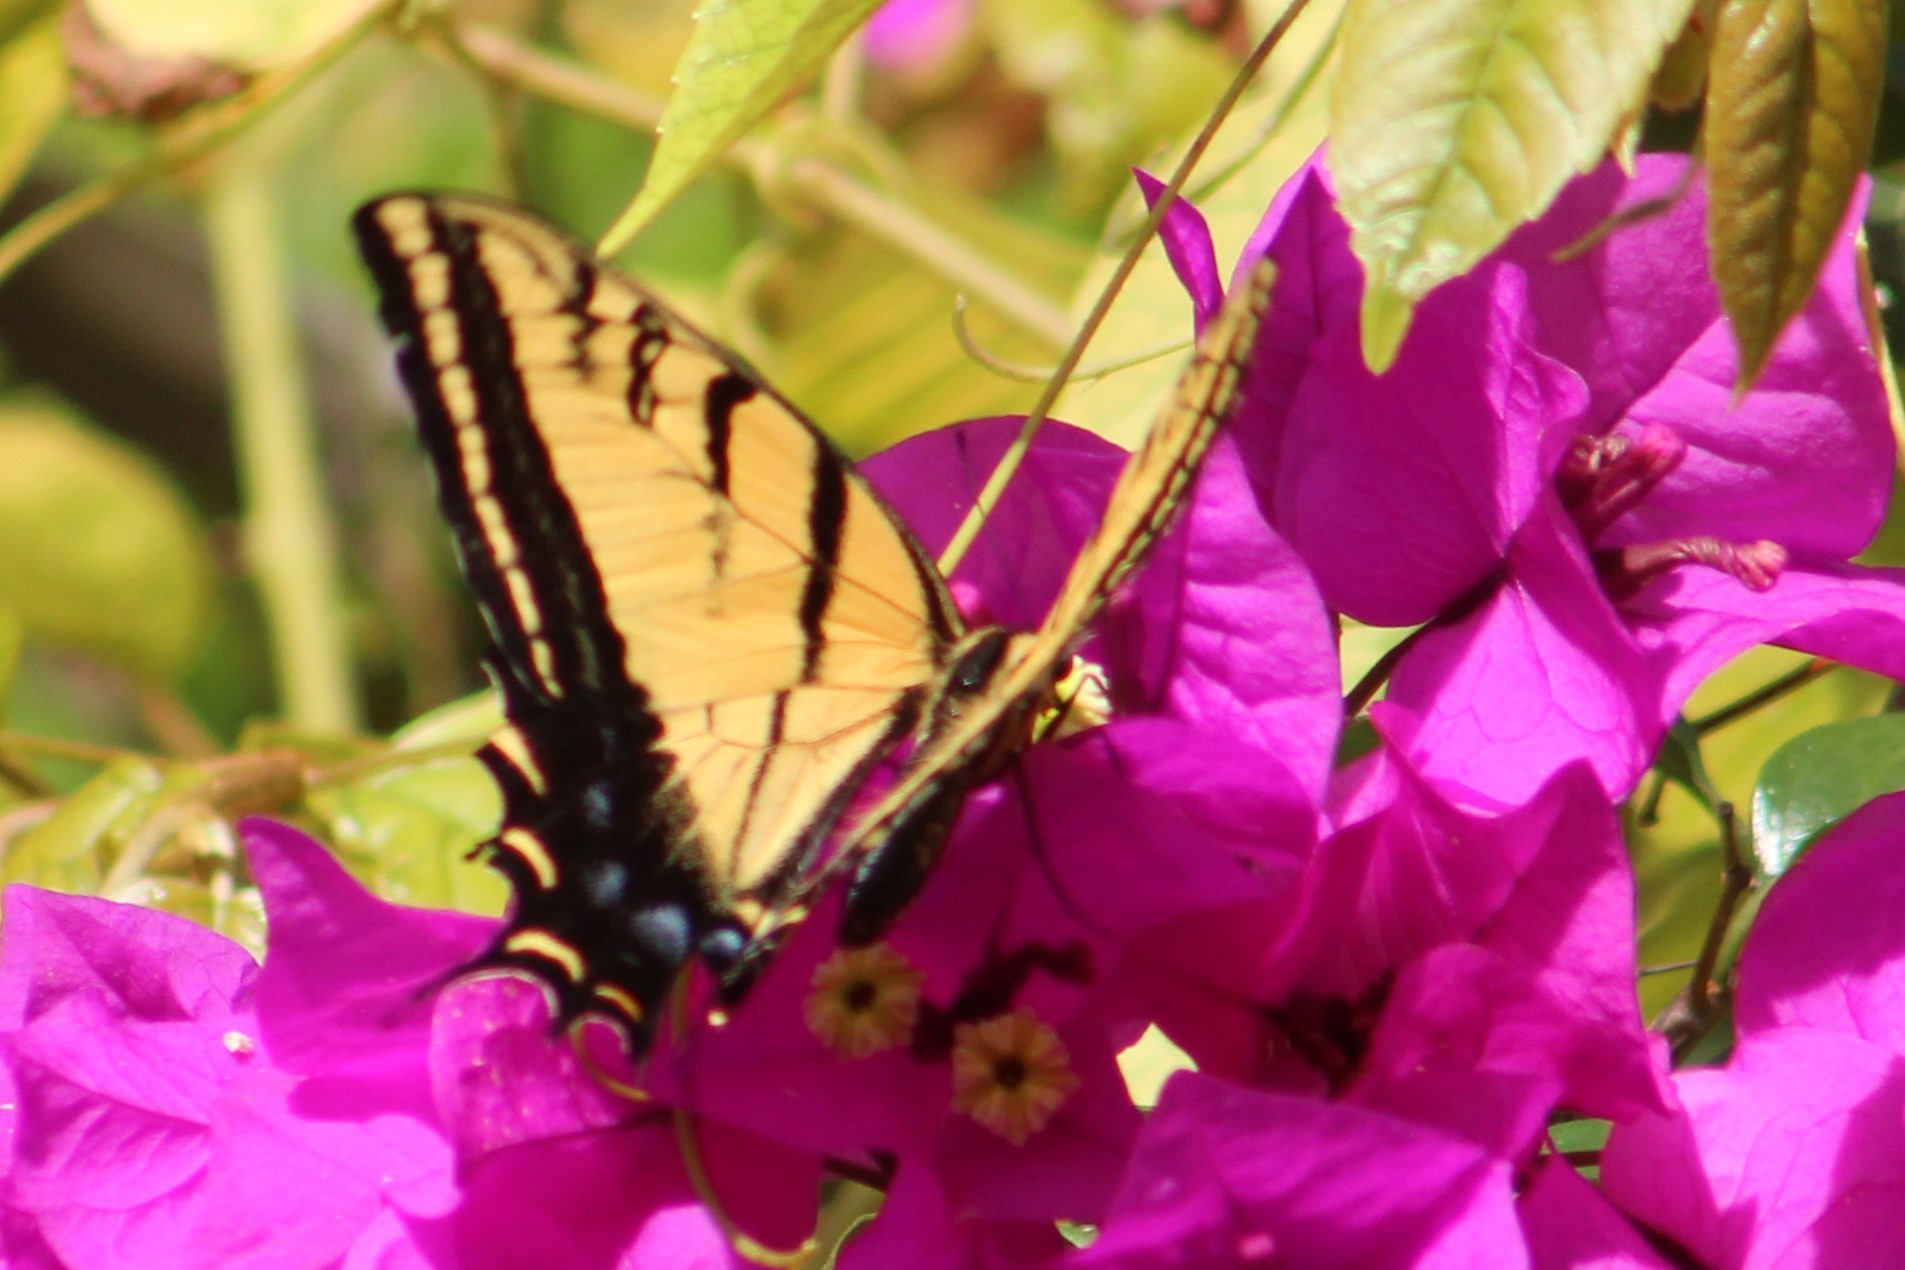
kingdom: Animalia
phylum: Arthropoda
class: Insecta
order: Lepidoptera
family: Papilionidae
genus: Papilio
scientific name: Papilio multicaudata
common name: Two-tailed tiger swallowtail
